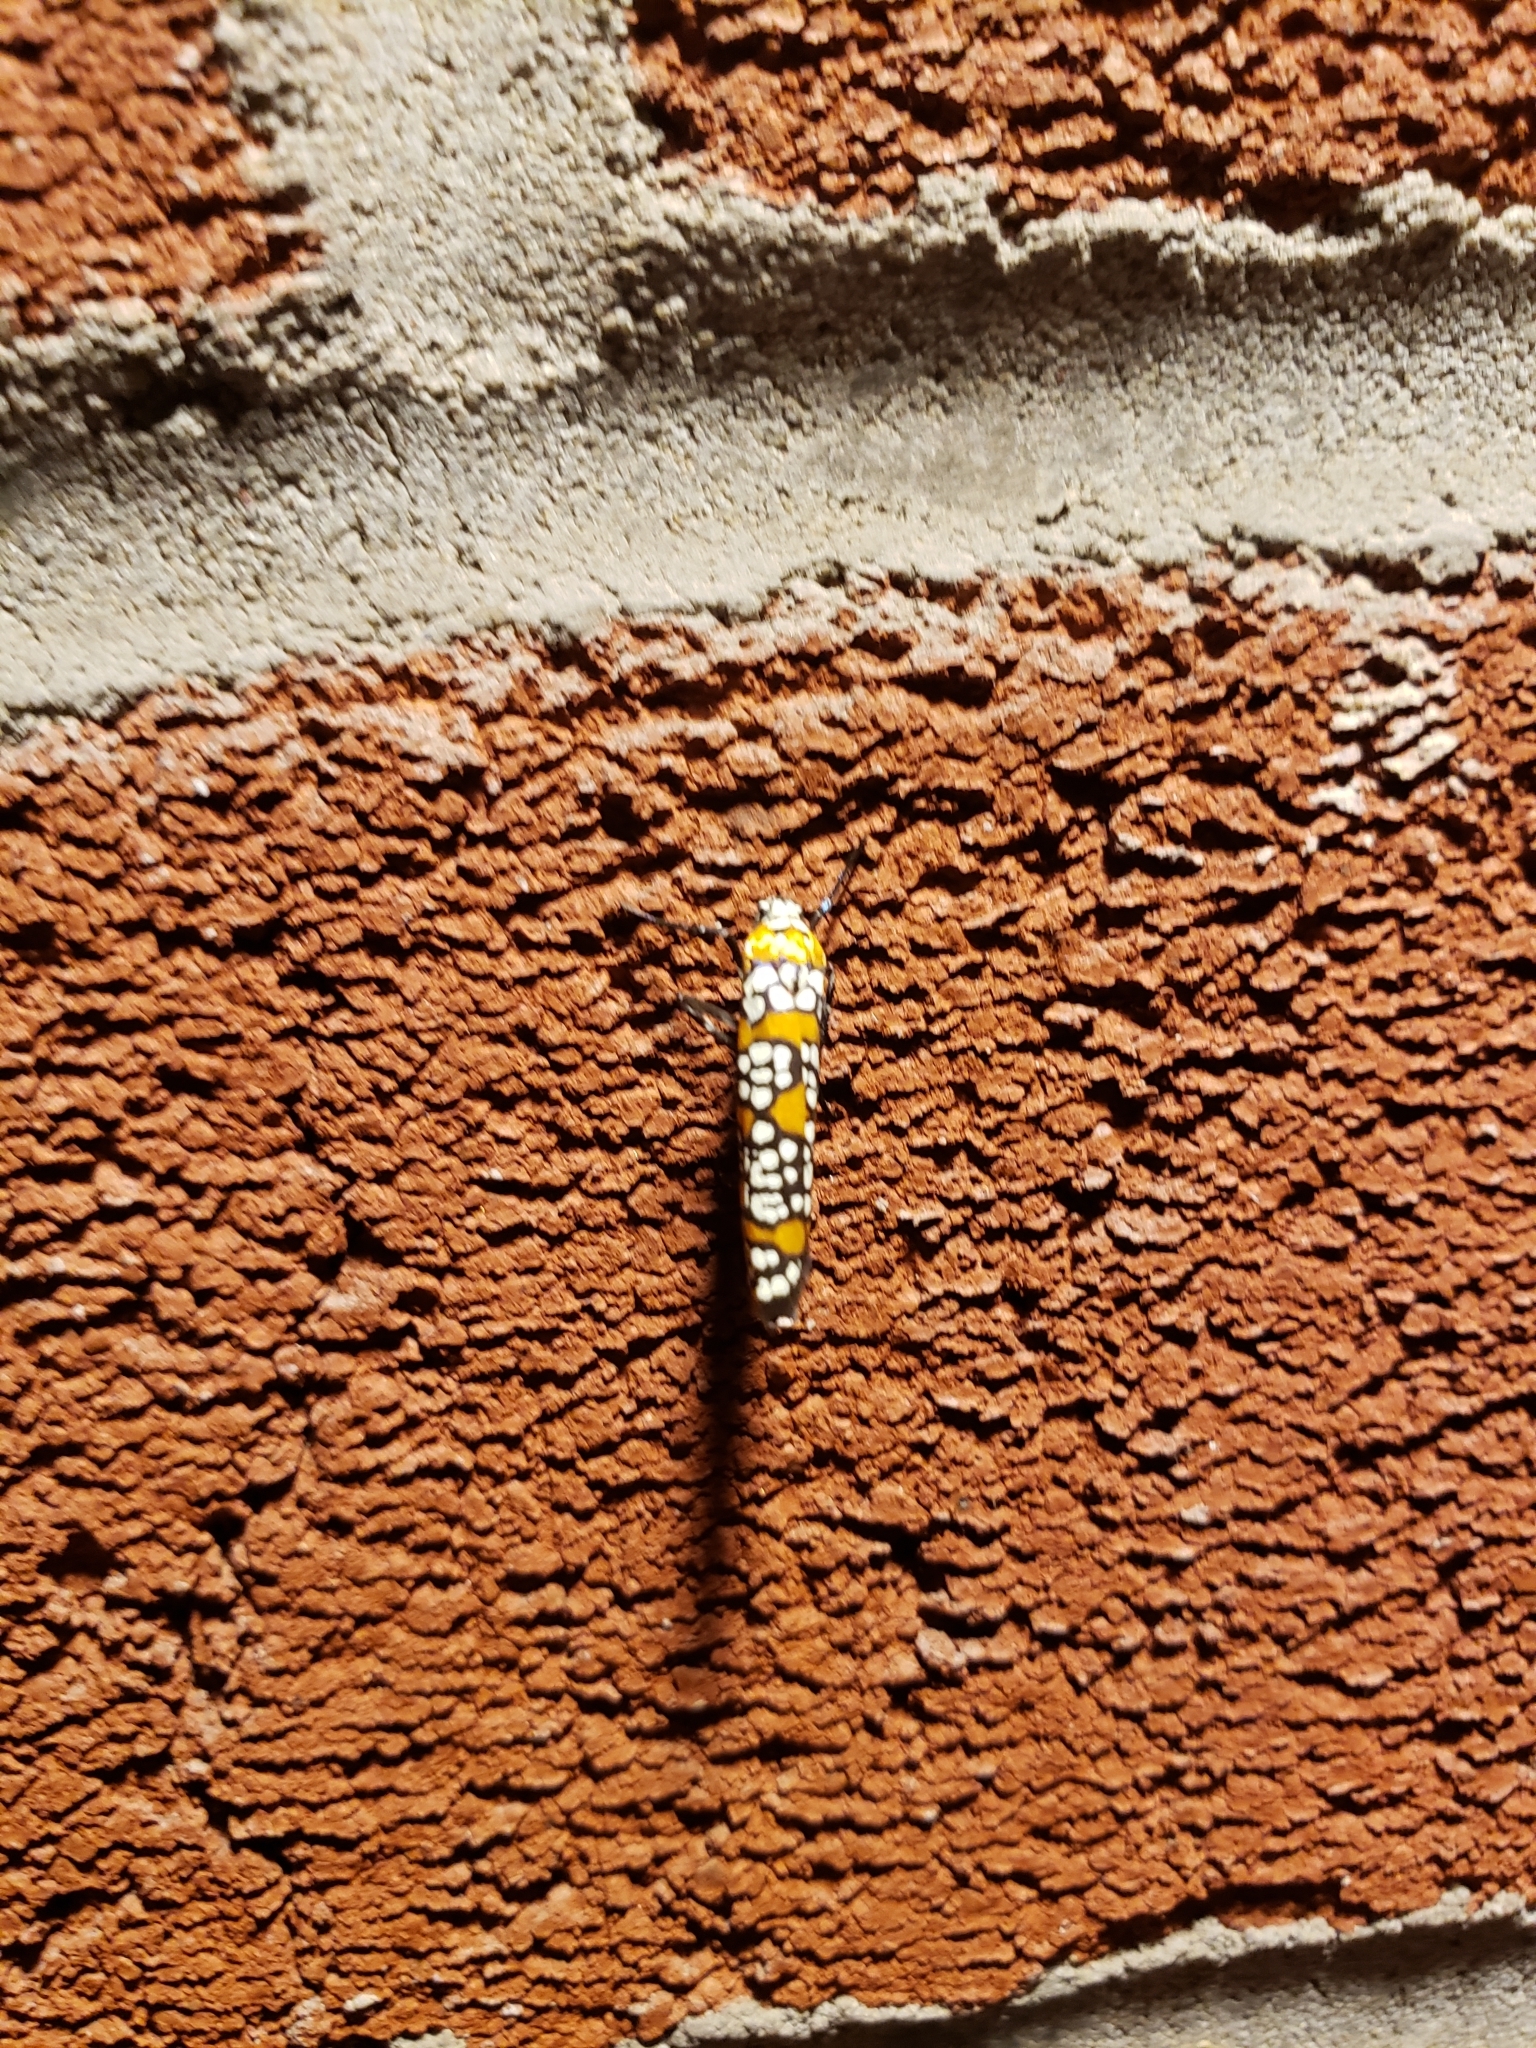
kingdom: Animalia
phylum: Arthropoda
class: Insecta
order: Lepidoptera
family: Attevidae
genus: Atteva
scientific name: Atteva punctella
